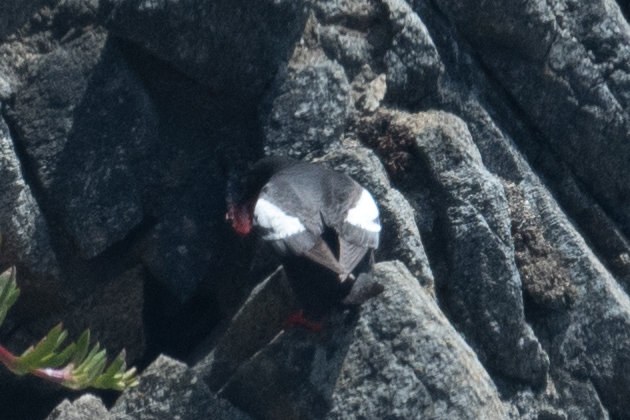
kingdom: Animalia
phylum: Chordata
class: Aves
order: Charadriiformes
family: Alcidae
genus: Cepphus
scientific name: Cepphus columba
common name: Pigeon guillemot
